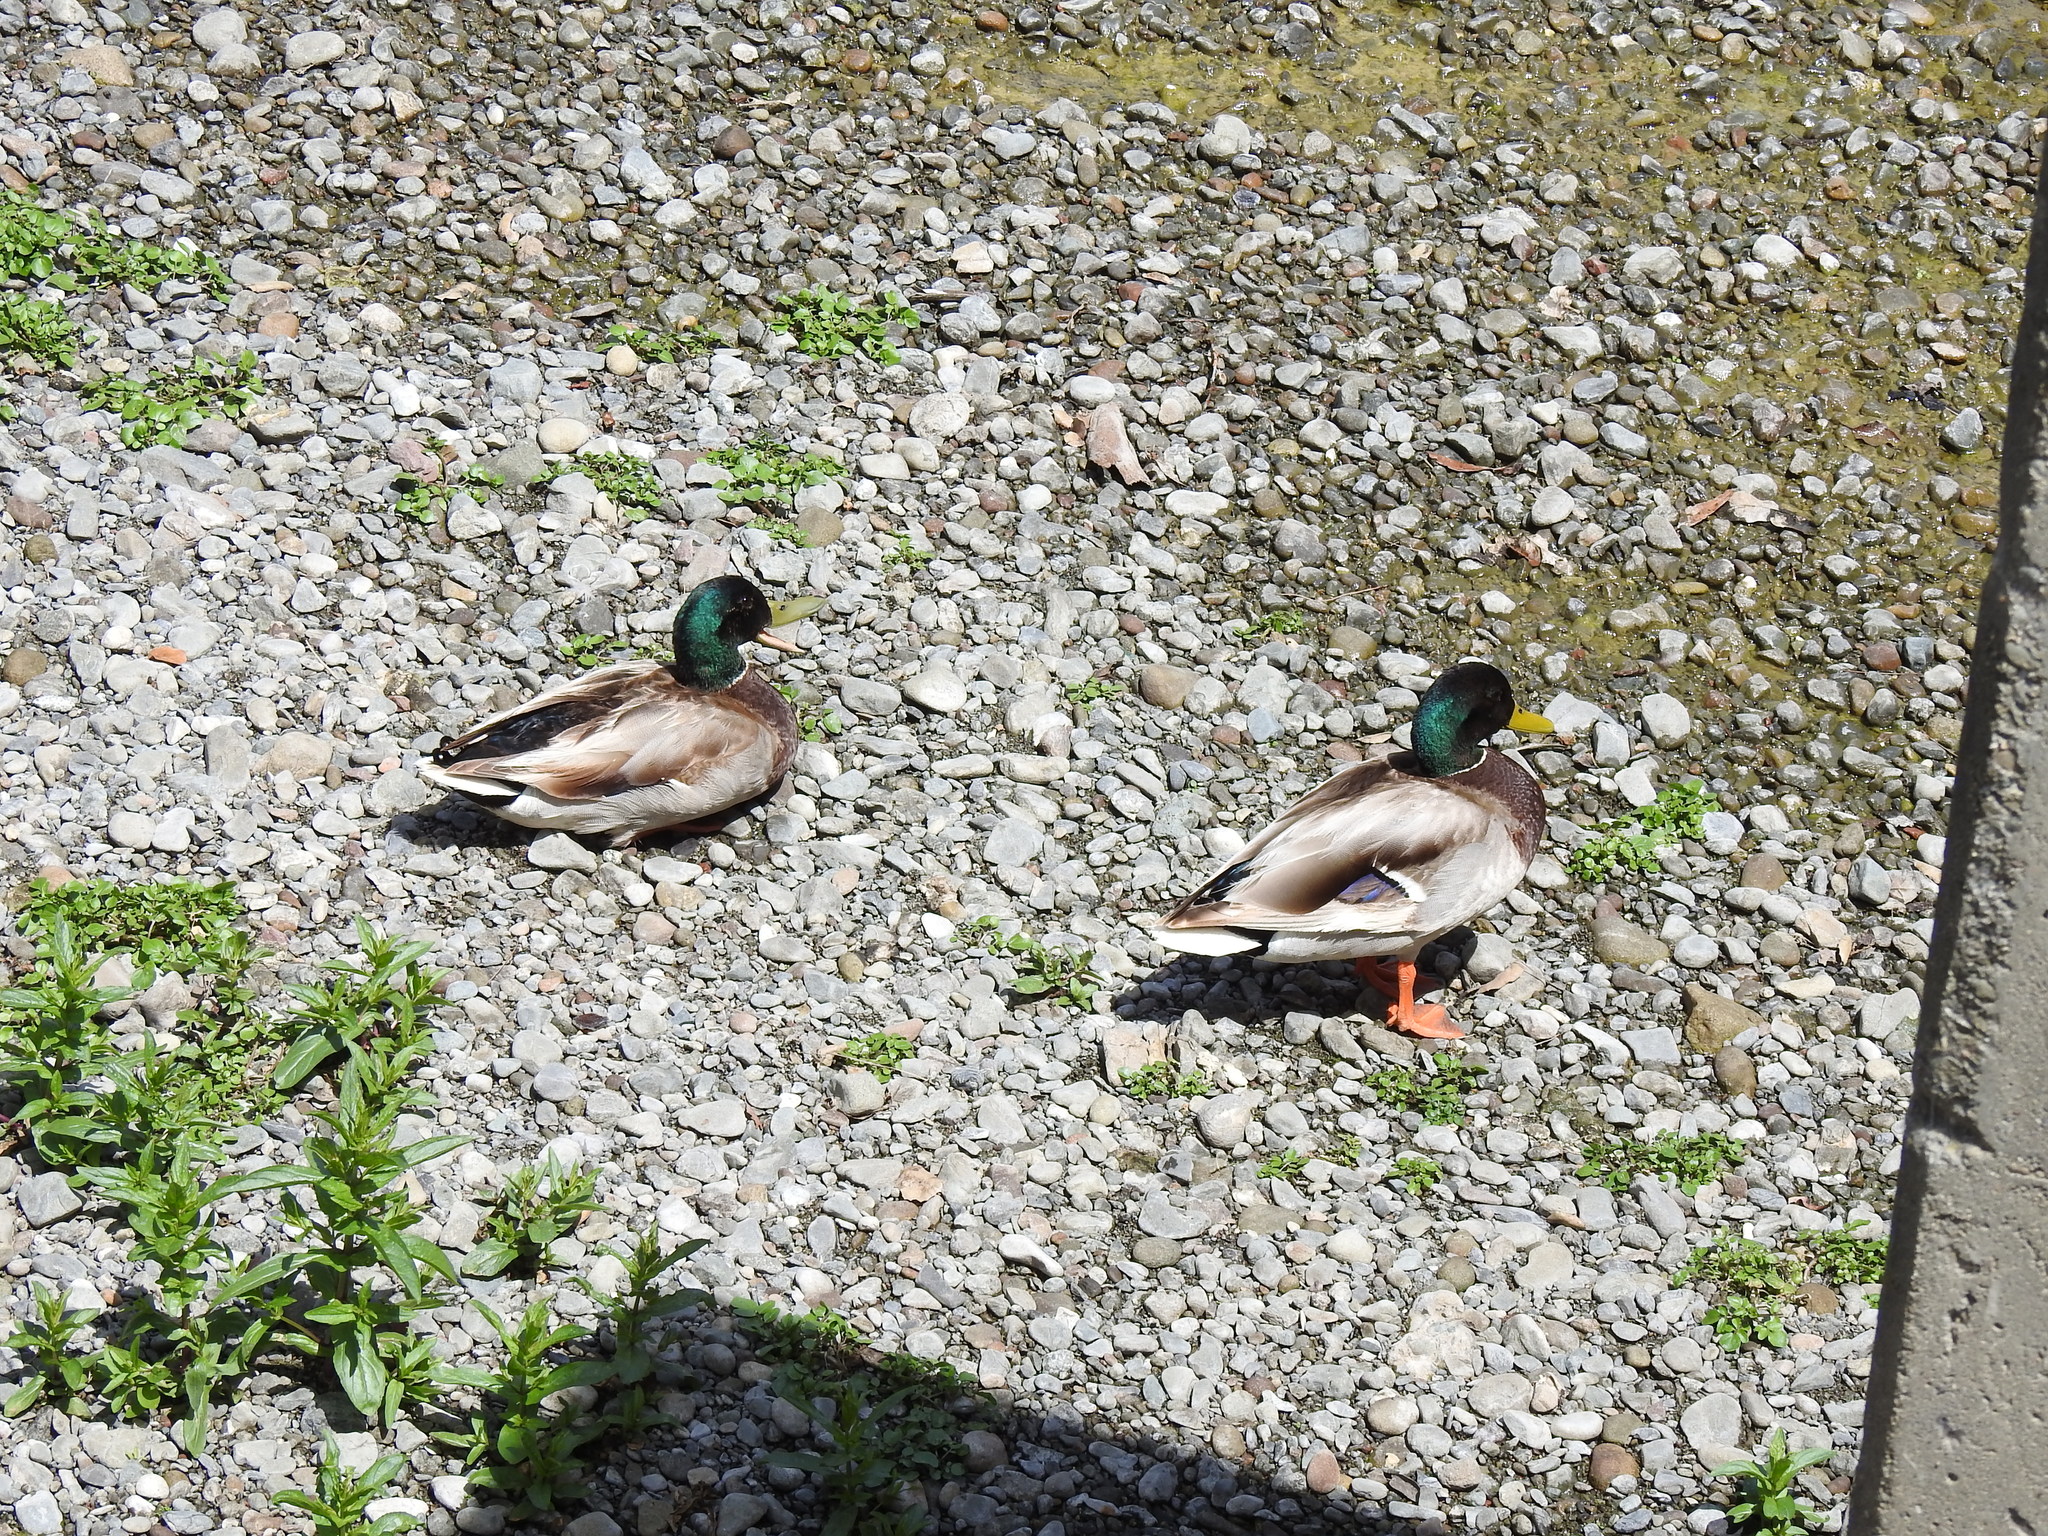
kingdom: Animalia
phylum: Chordata
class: Aves
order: Anseriformes
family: Anatidae
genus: Anas
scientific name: Anas platyrhynchos
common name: Mallard
